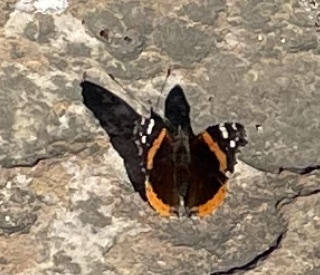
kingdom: Animalia
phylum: Arthropoda
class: Insecta
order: Lepidoptera
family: Nymphalidae
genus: Vanessa
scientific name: Vanessa atalanta
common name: Red admiral
